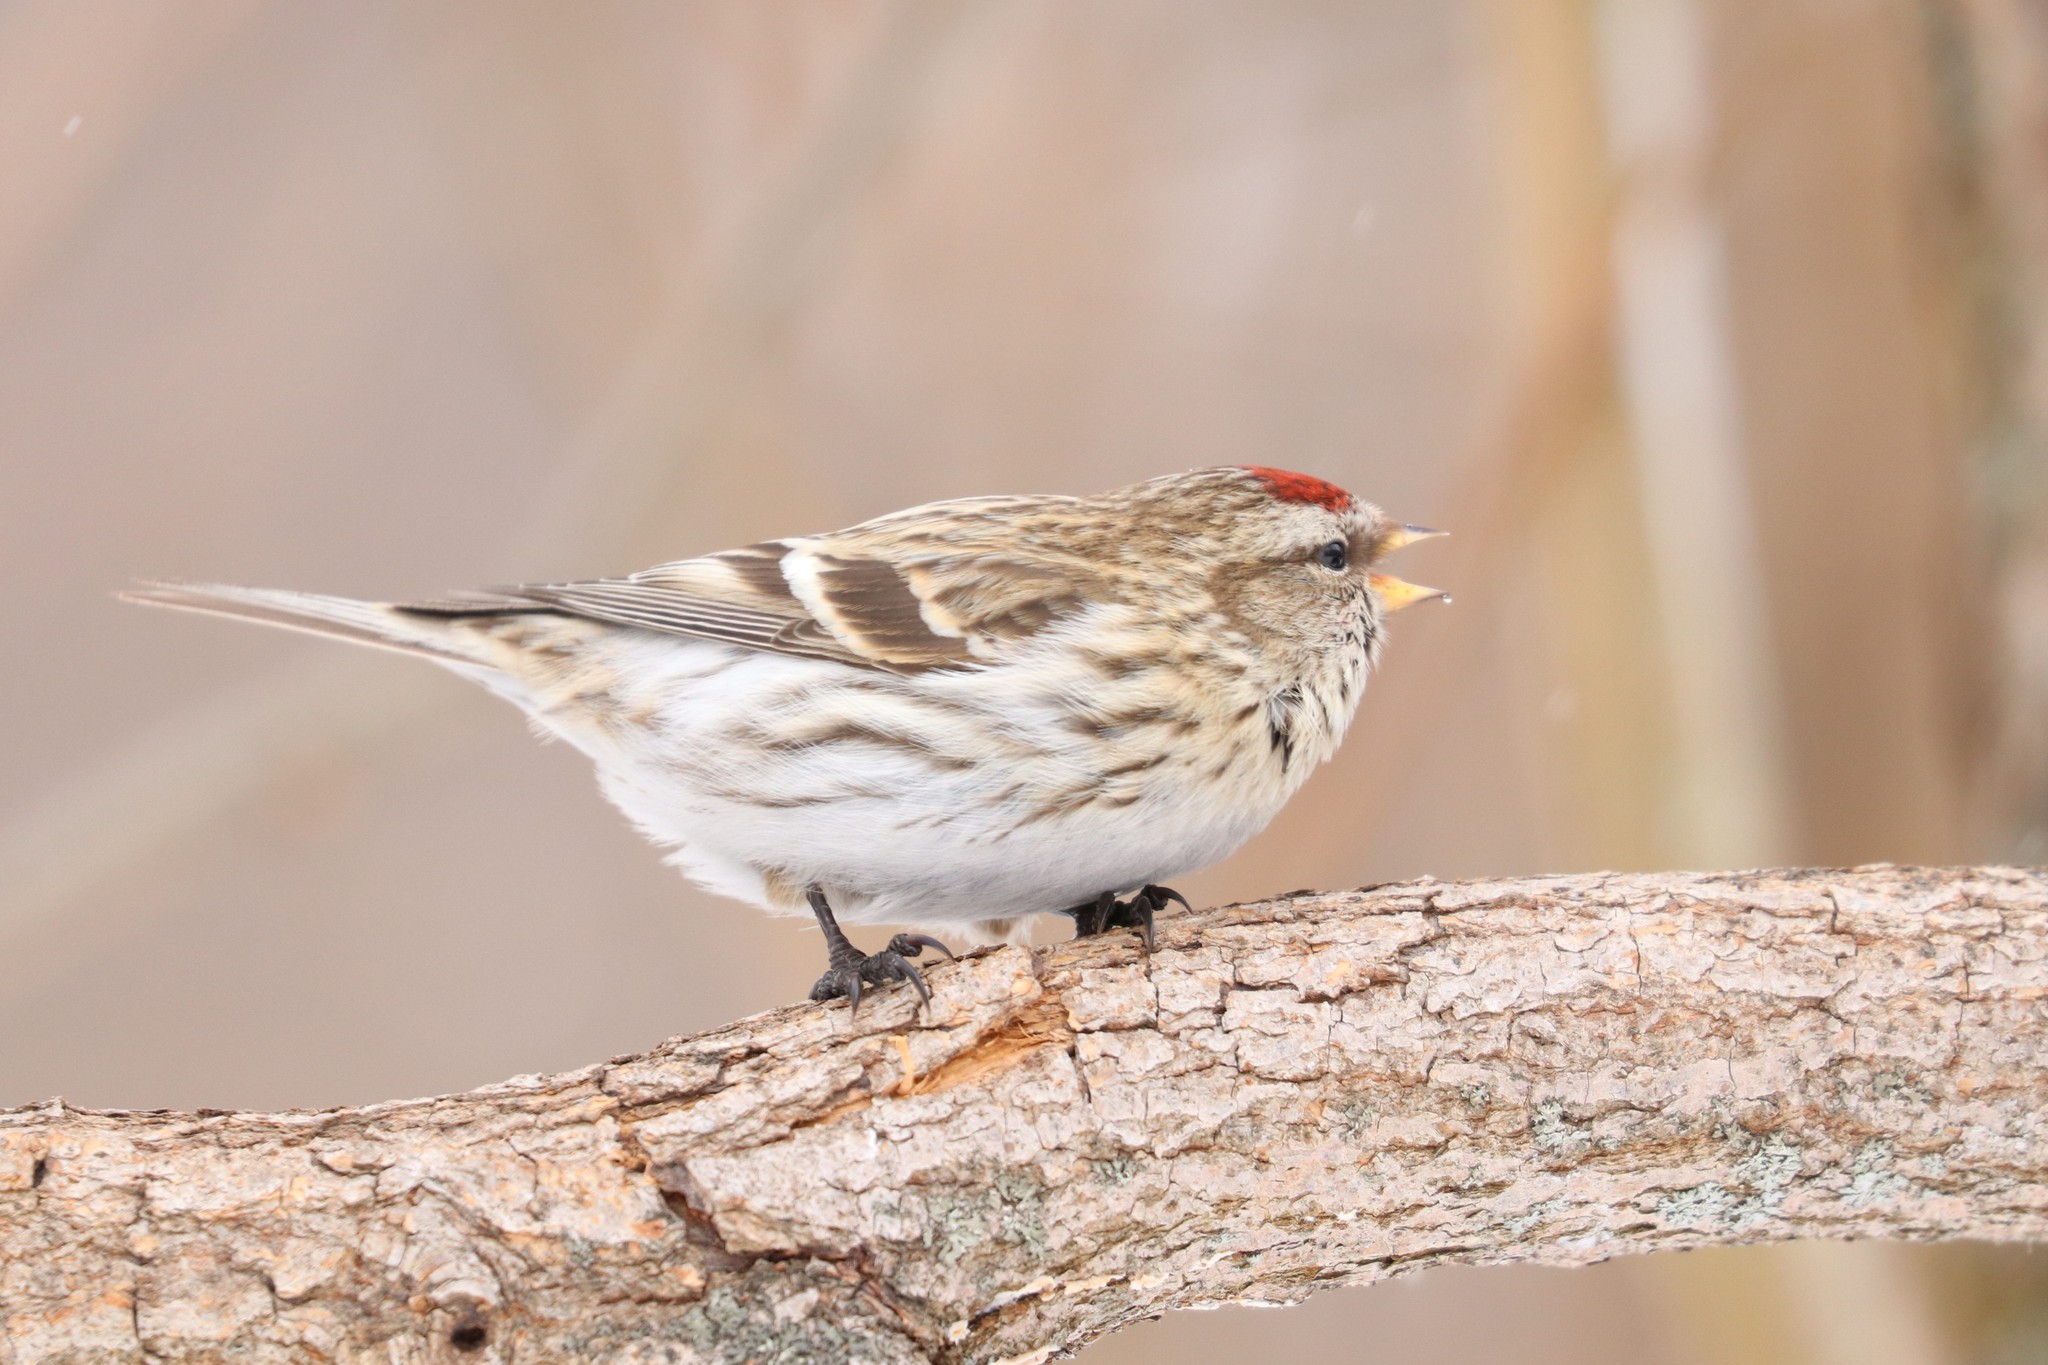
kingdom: Animalia
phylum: Chordata
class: Aves
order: Passeriformes
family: Fringillidae
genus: Acanthis
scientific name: Acanthis flammea
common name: Common redpoll
